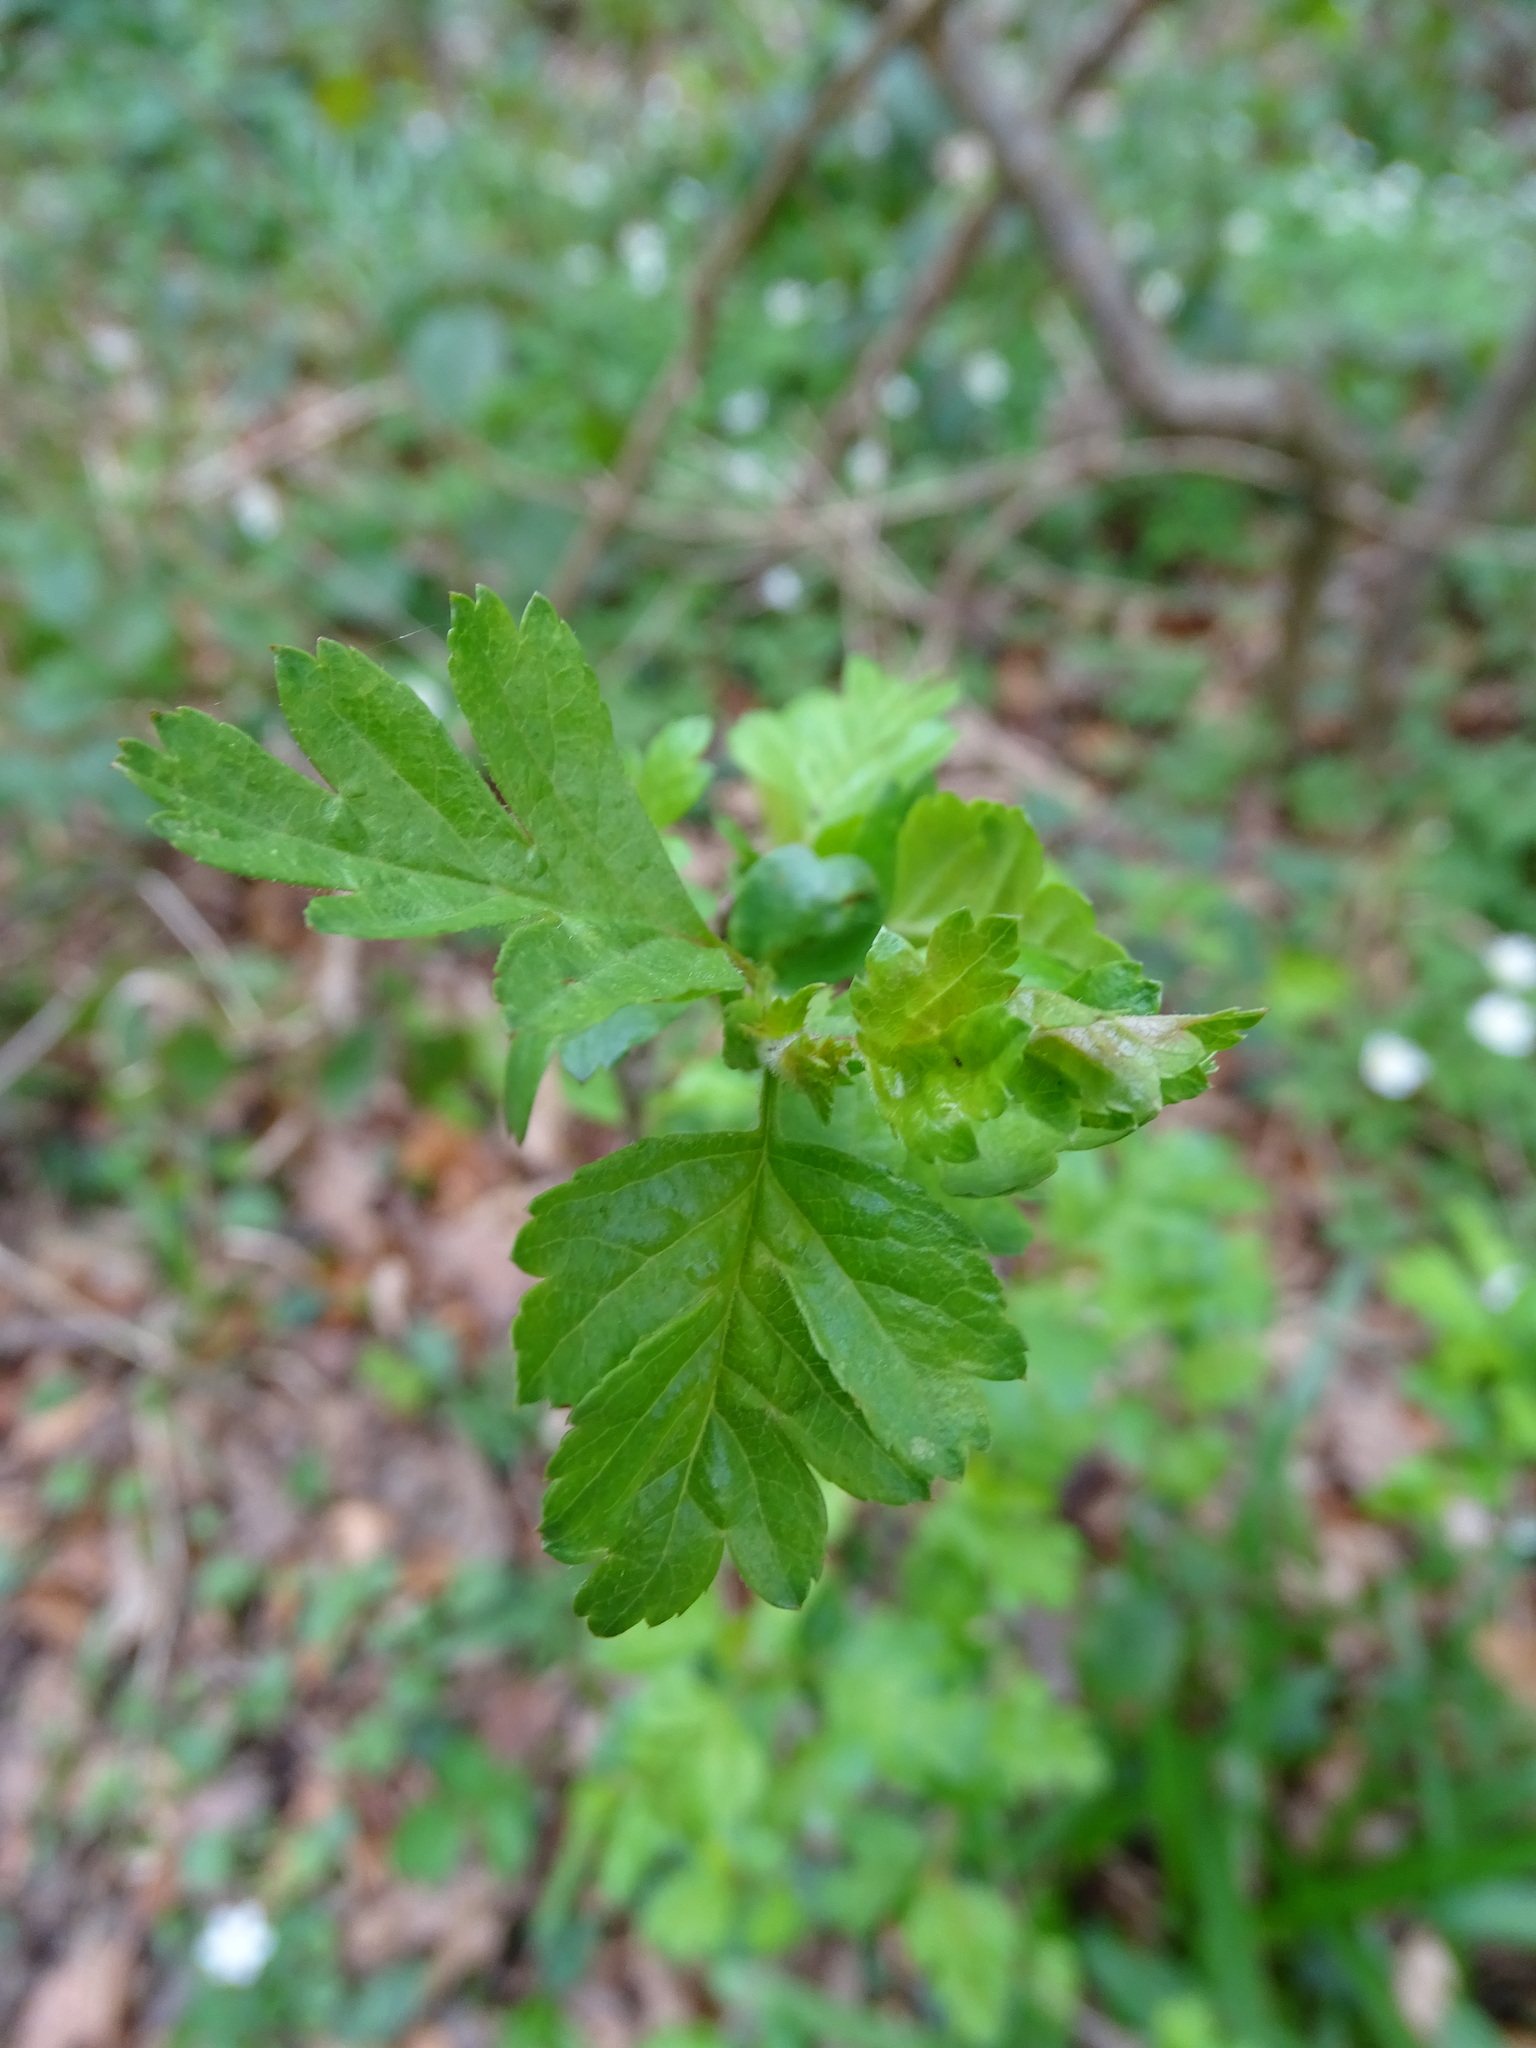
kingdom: Plantae
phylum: Tracheophyta
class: Magnoliopsida
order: Rosales
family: Rosaceae
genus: Crataegus
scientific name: Crataegus monogyna
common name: Hawthorn
